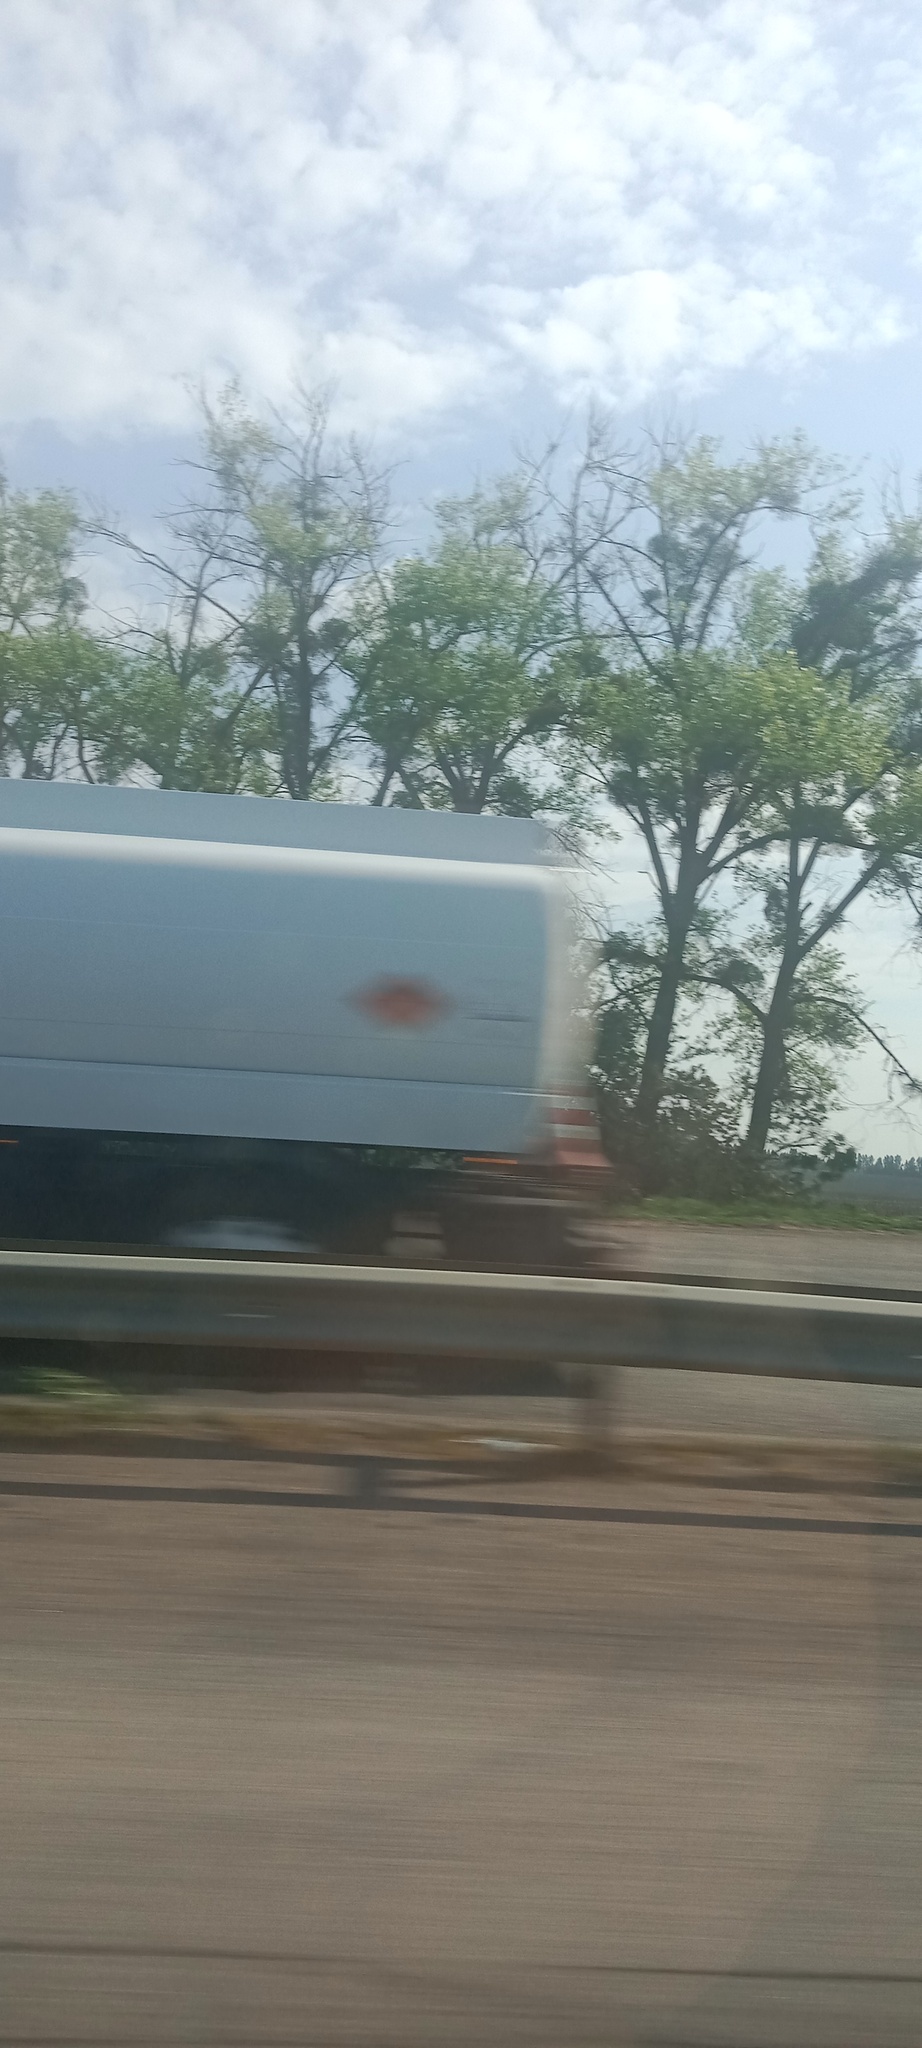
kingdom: Plantae
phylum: Tracheophyta
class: Magnoliopsida
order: Santalales
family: Viscaceae
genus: Viscum
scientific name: Viscum album
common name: Mistletoe
